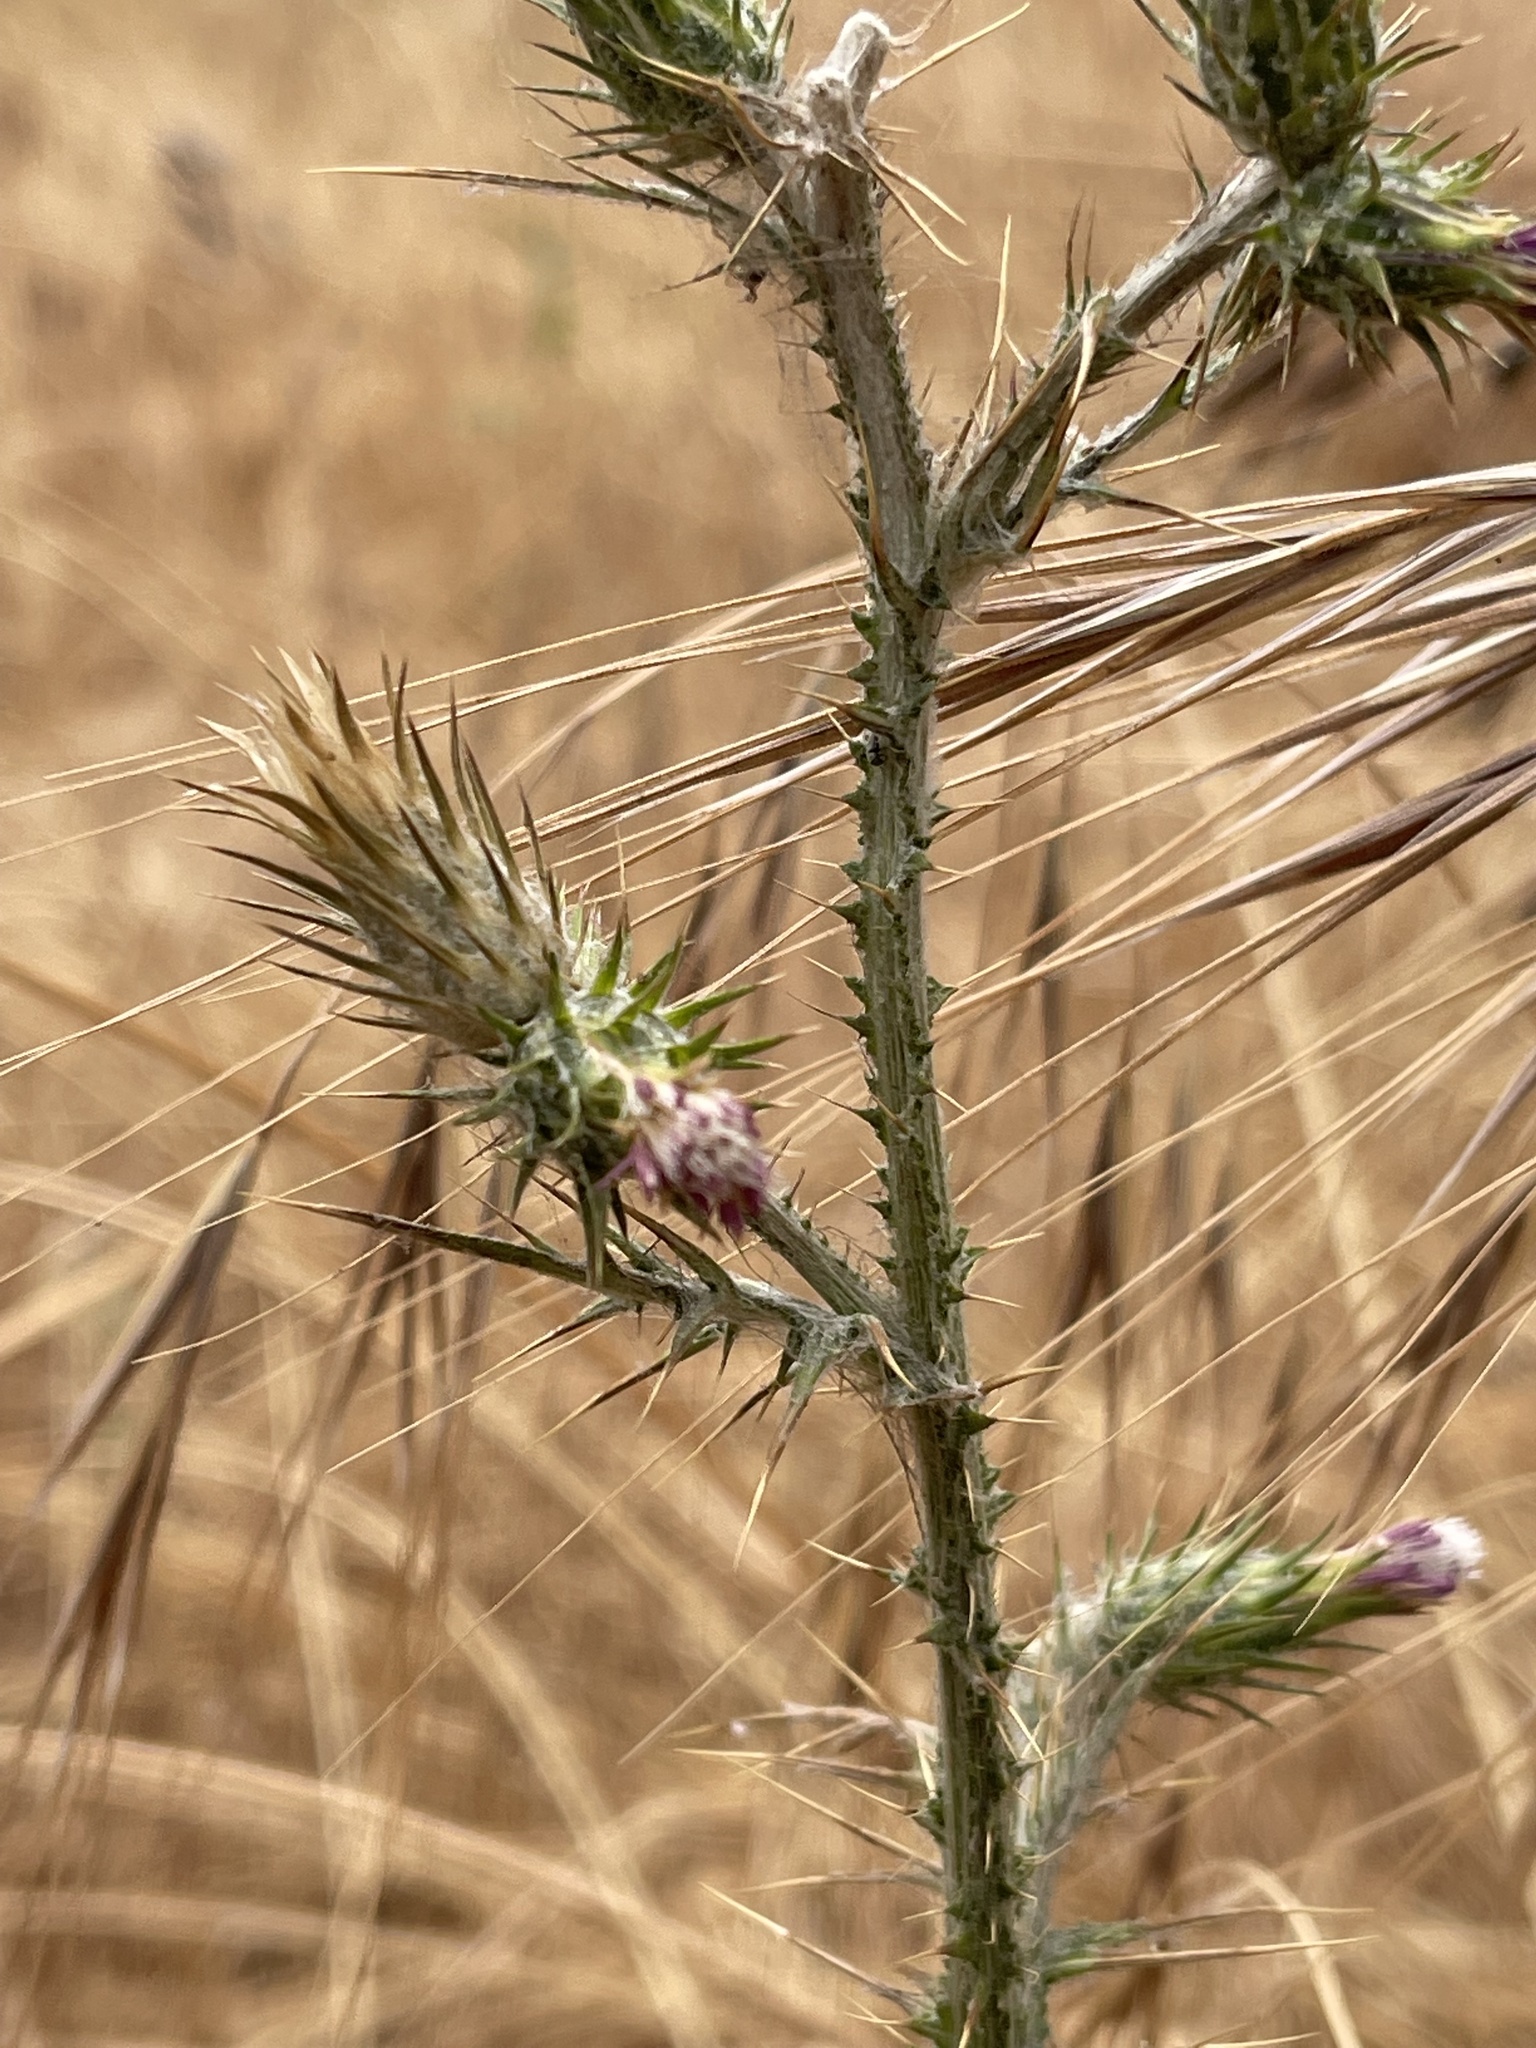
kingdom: Plantae
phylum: Tracheophyta
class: Magnoliopsida
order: Asterales
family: Asteraceae
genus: Carduus
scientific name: Carduus pycnocephalus
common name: Plymouth thistle
